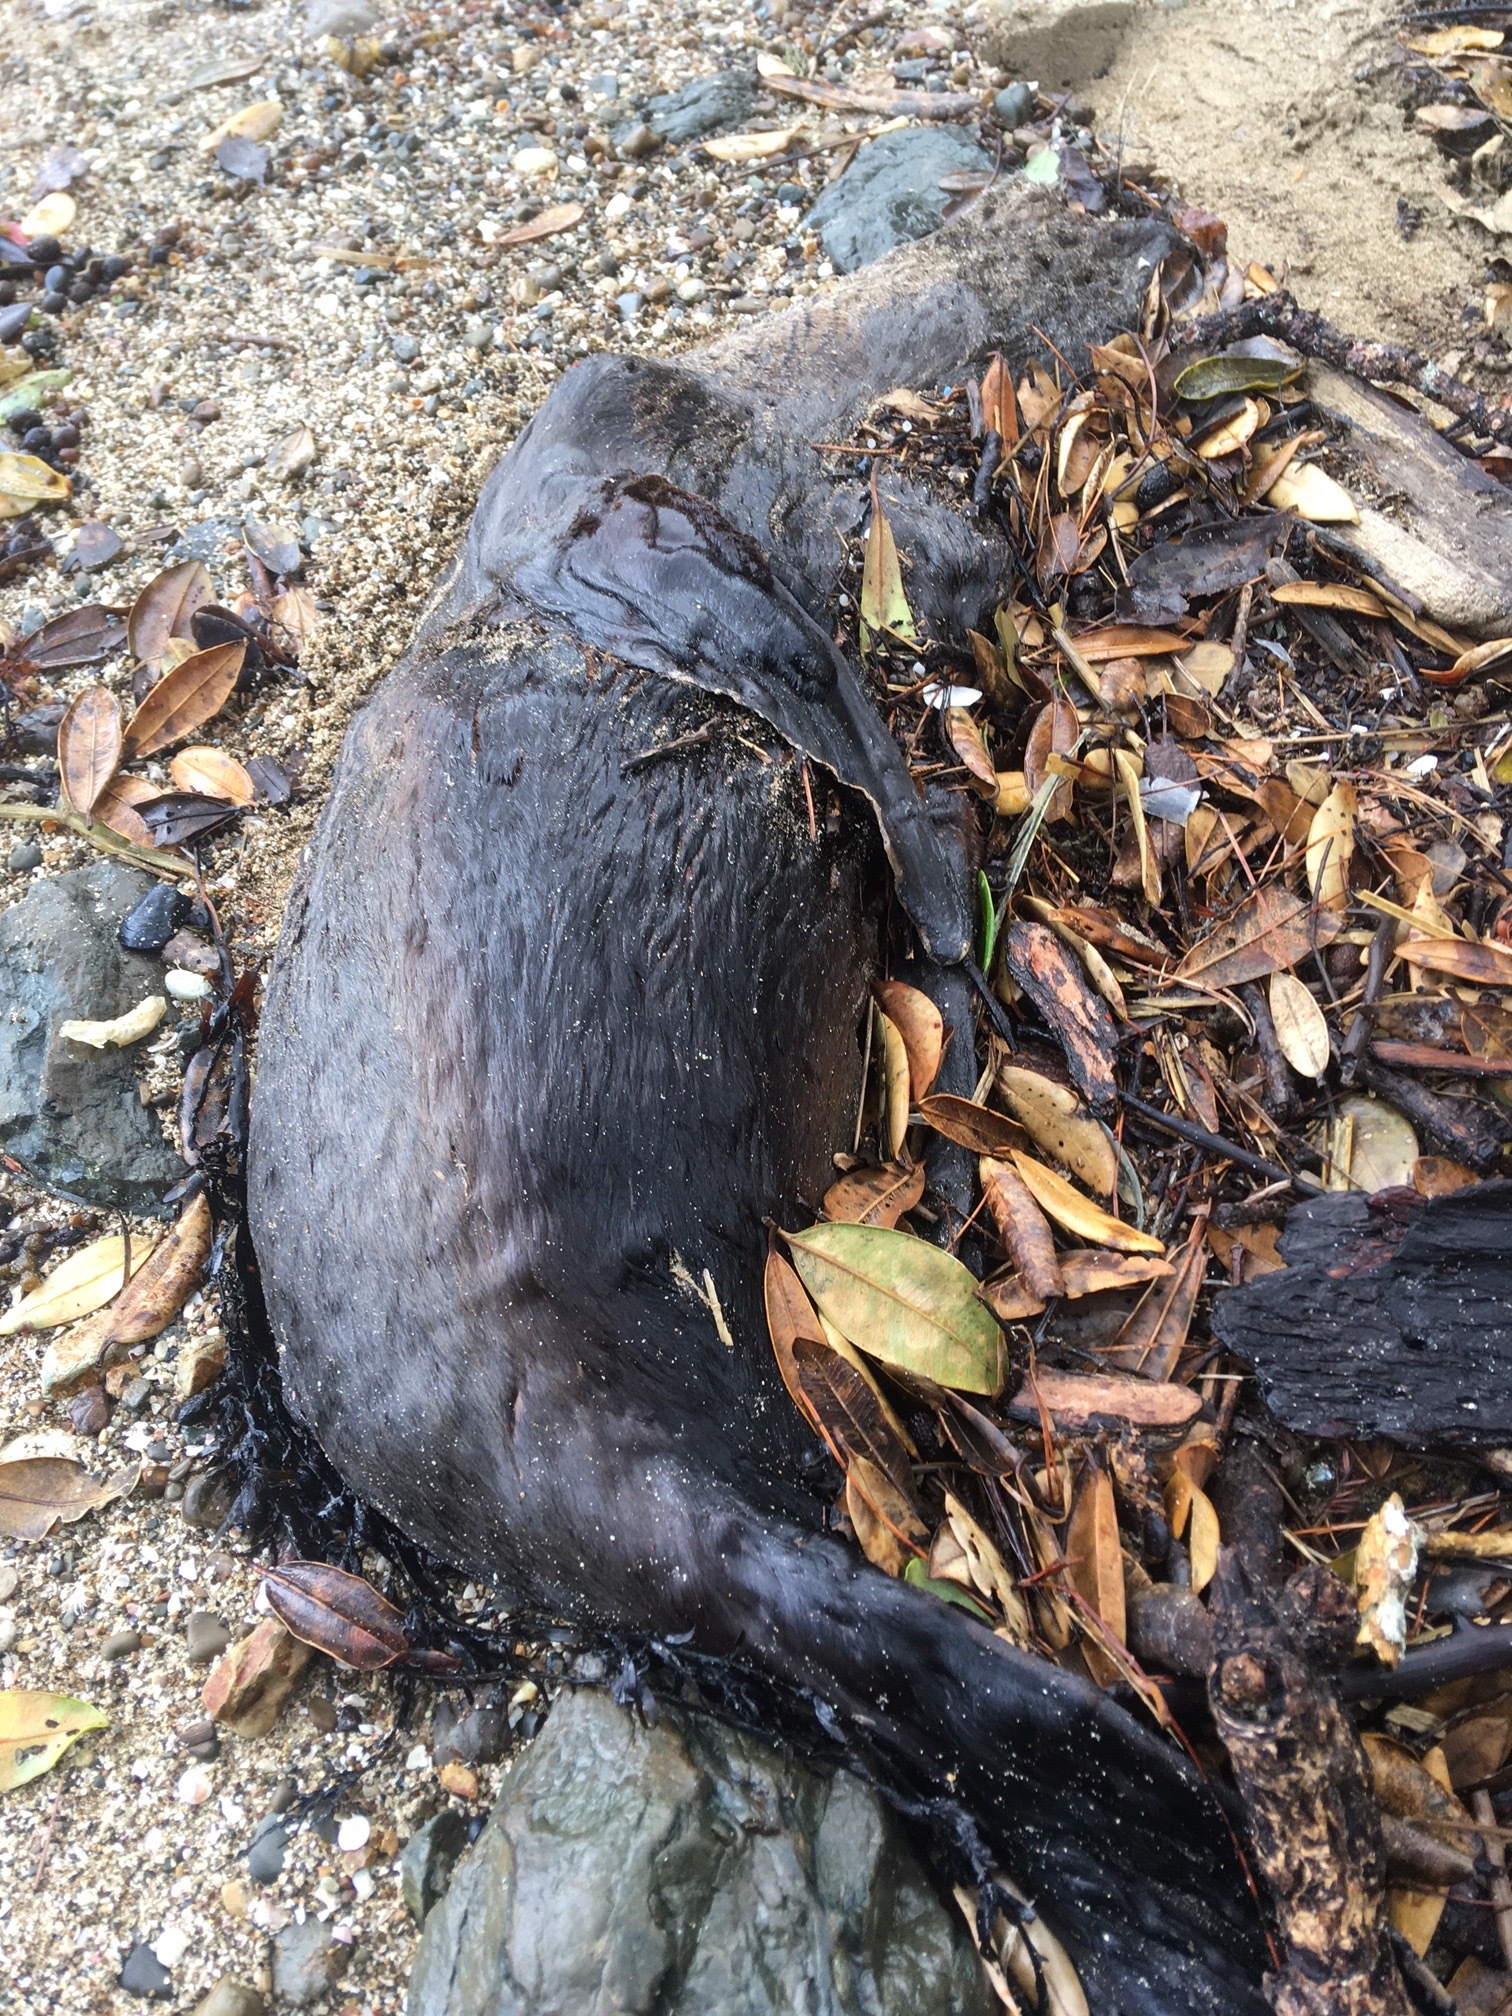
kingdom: Animalia
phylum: Chordata
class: Mammalia
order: Carnivora
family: Otariidae
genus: Arctocephalus
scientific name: Arctocephalus forsteri
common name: New zealand fur seal
